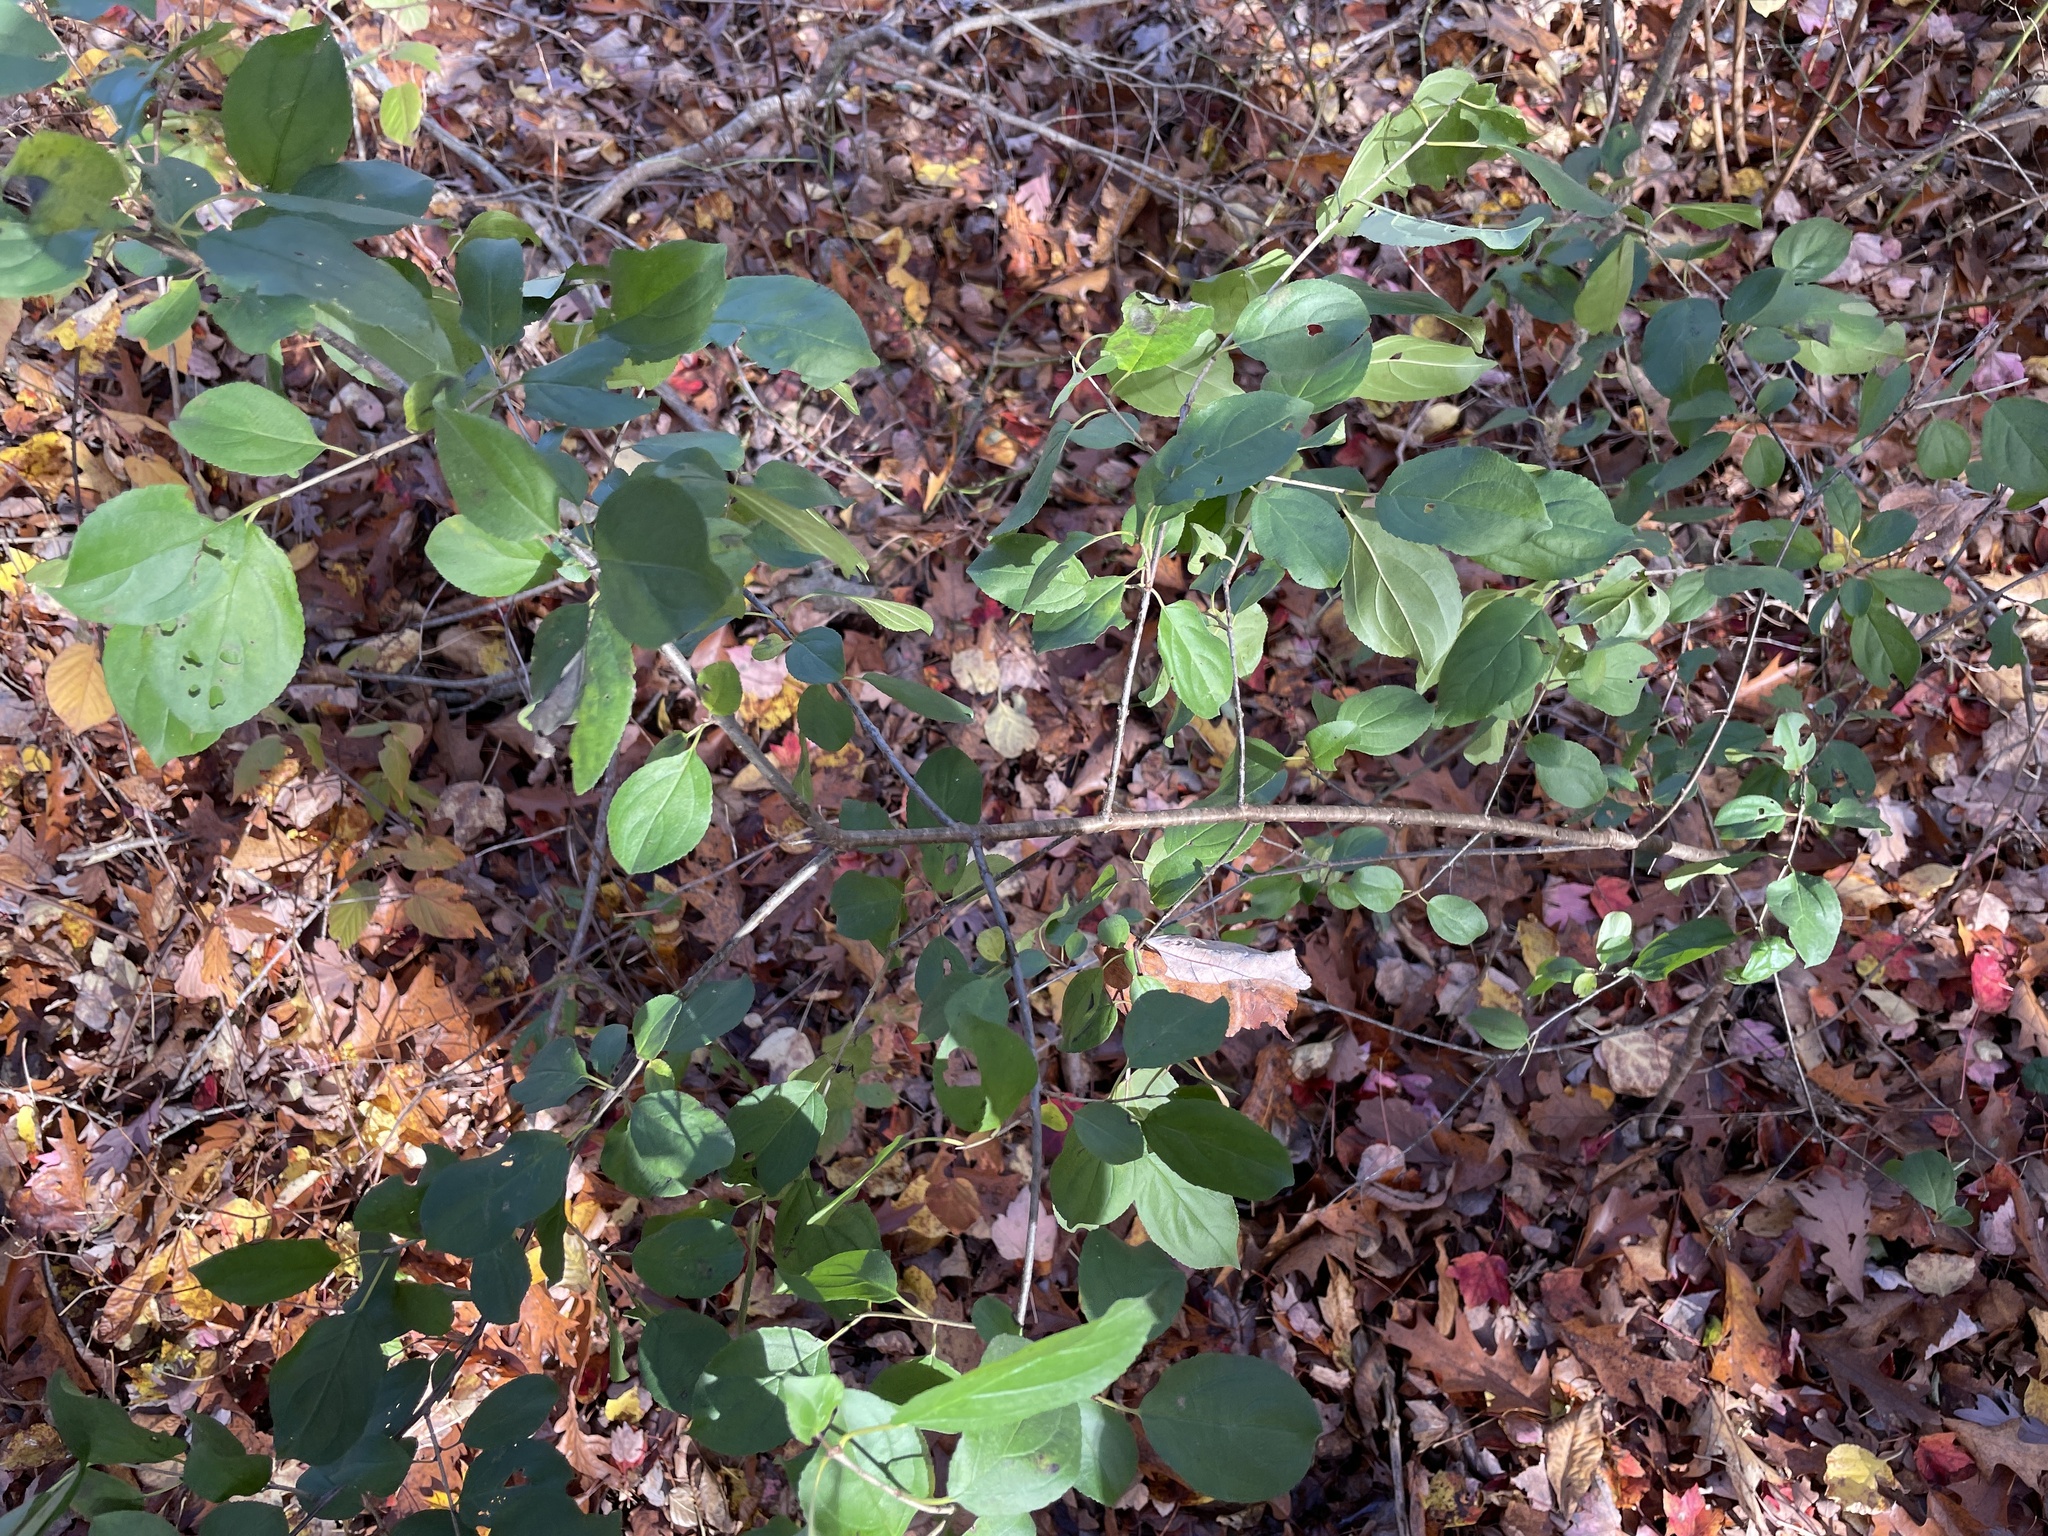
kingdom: Plantae
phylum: Tracheophyta
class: Magnoliopsida
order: Rosales
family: Rhamnaceae
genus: Rhamnus
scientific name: Rhamnus cathartica
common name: Common buckthorn
